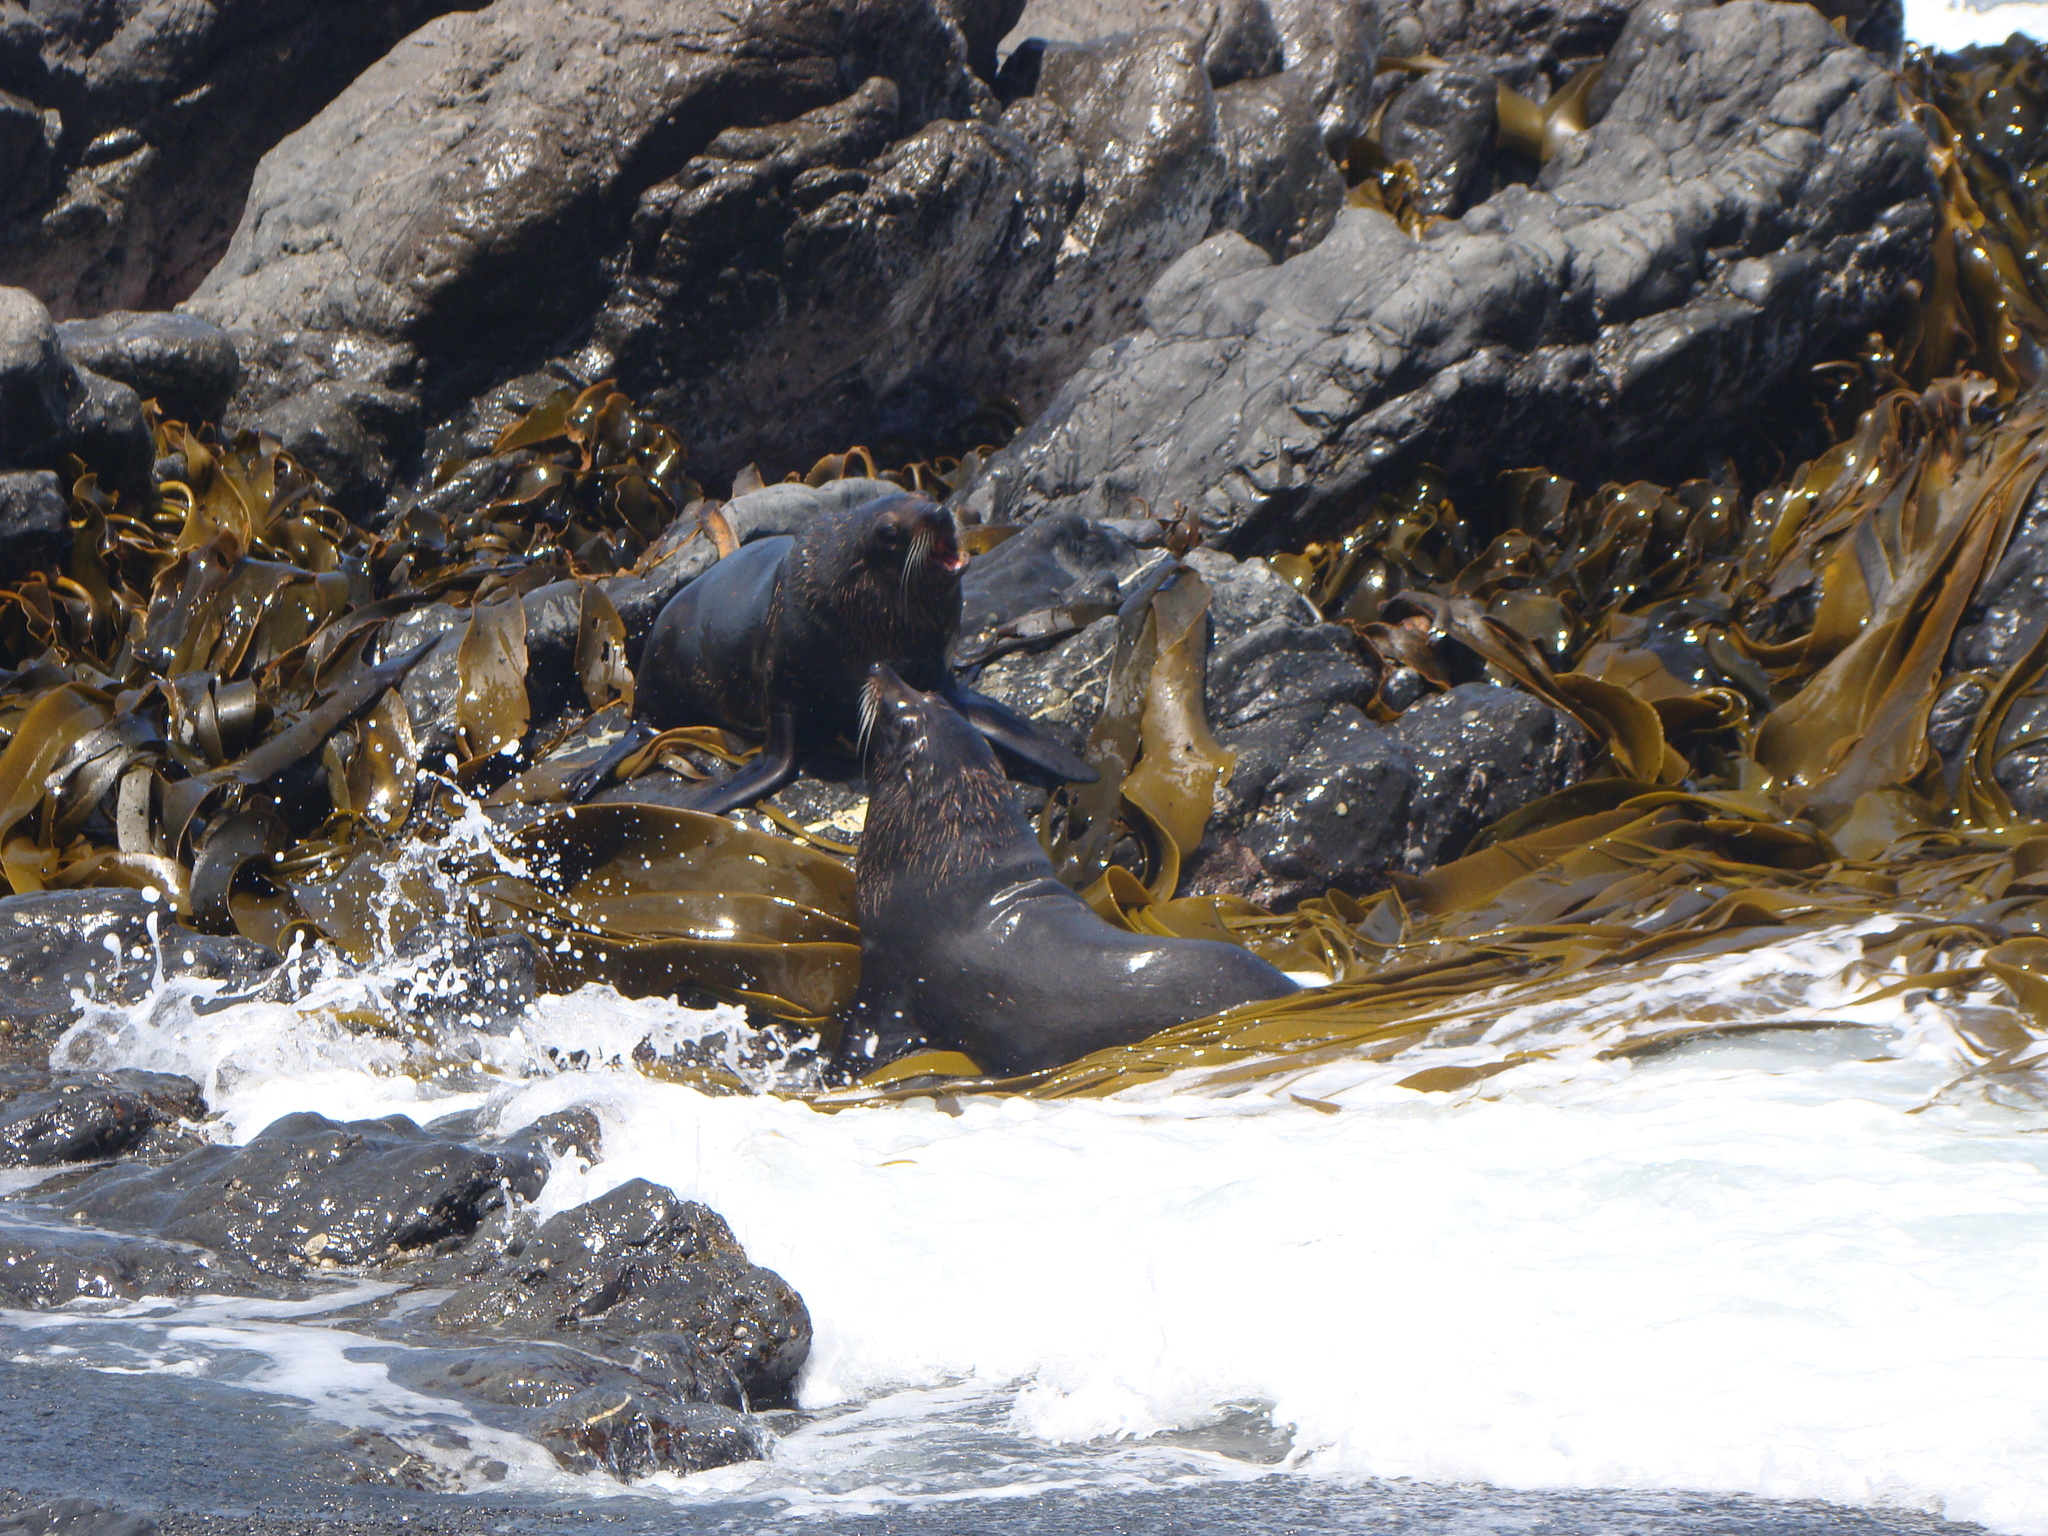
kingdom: Animalia
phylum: Chordata
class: Mammalia
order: Carnivora
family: Otariidae
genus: Arctocephalus
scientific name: Arctocephalus forsteri
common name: New zealand fur seal
